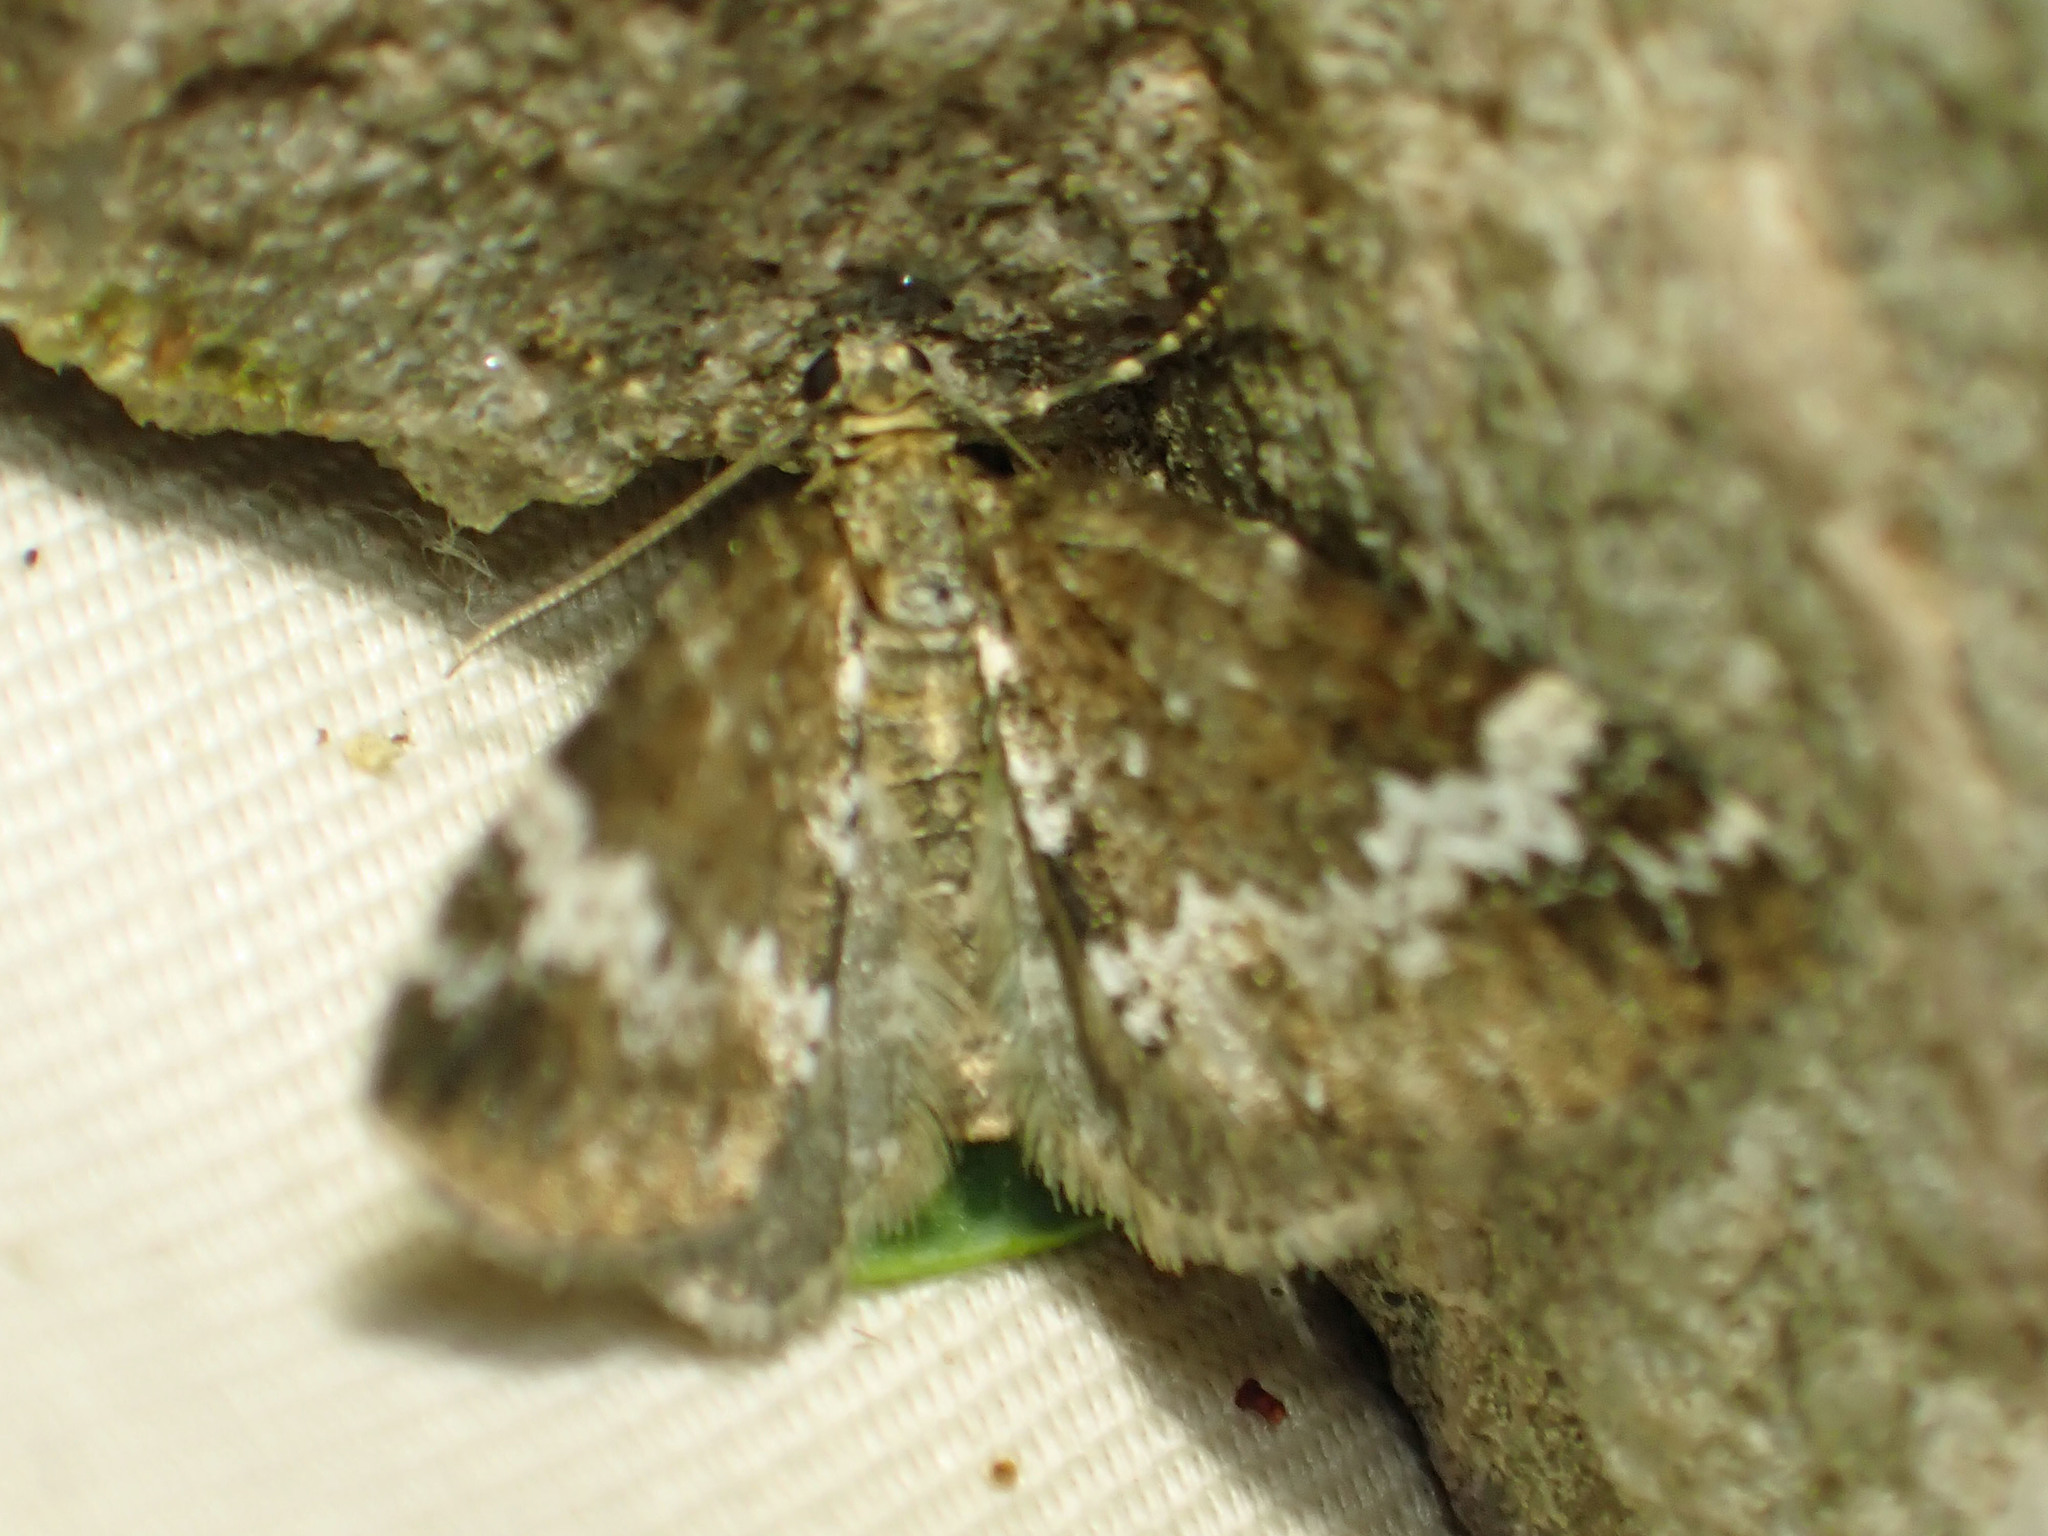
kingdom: Animalia
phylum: Arthropoda
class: Insecta
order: Lepidoptera
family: Geometridae
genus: Perizoma
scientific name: Perizoma alchemillata
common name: Small rivulet
